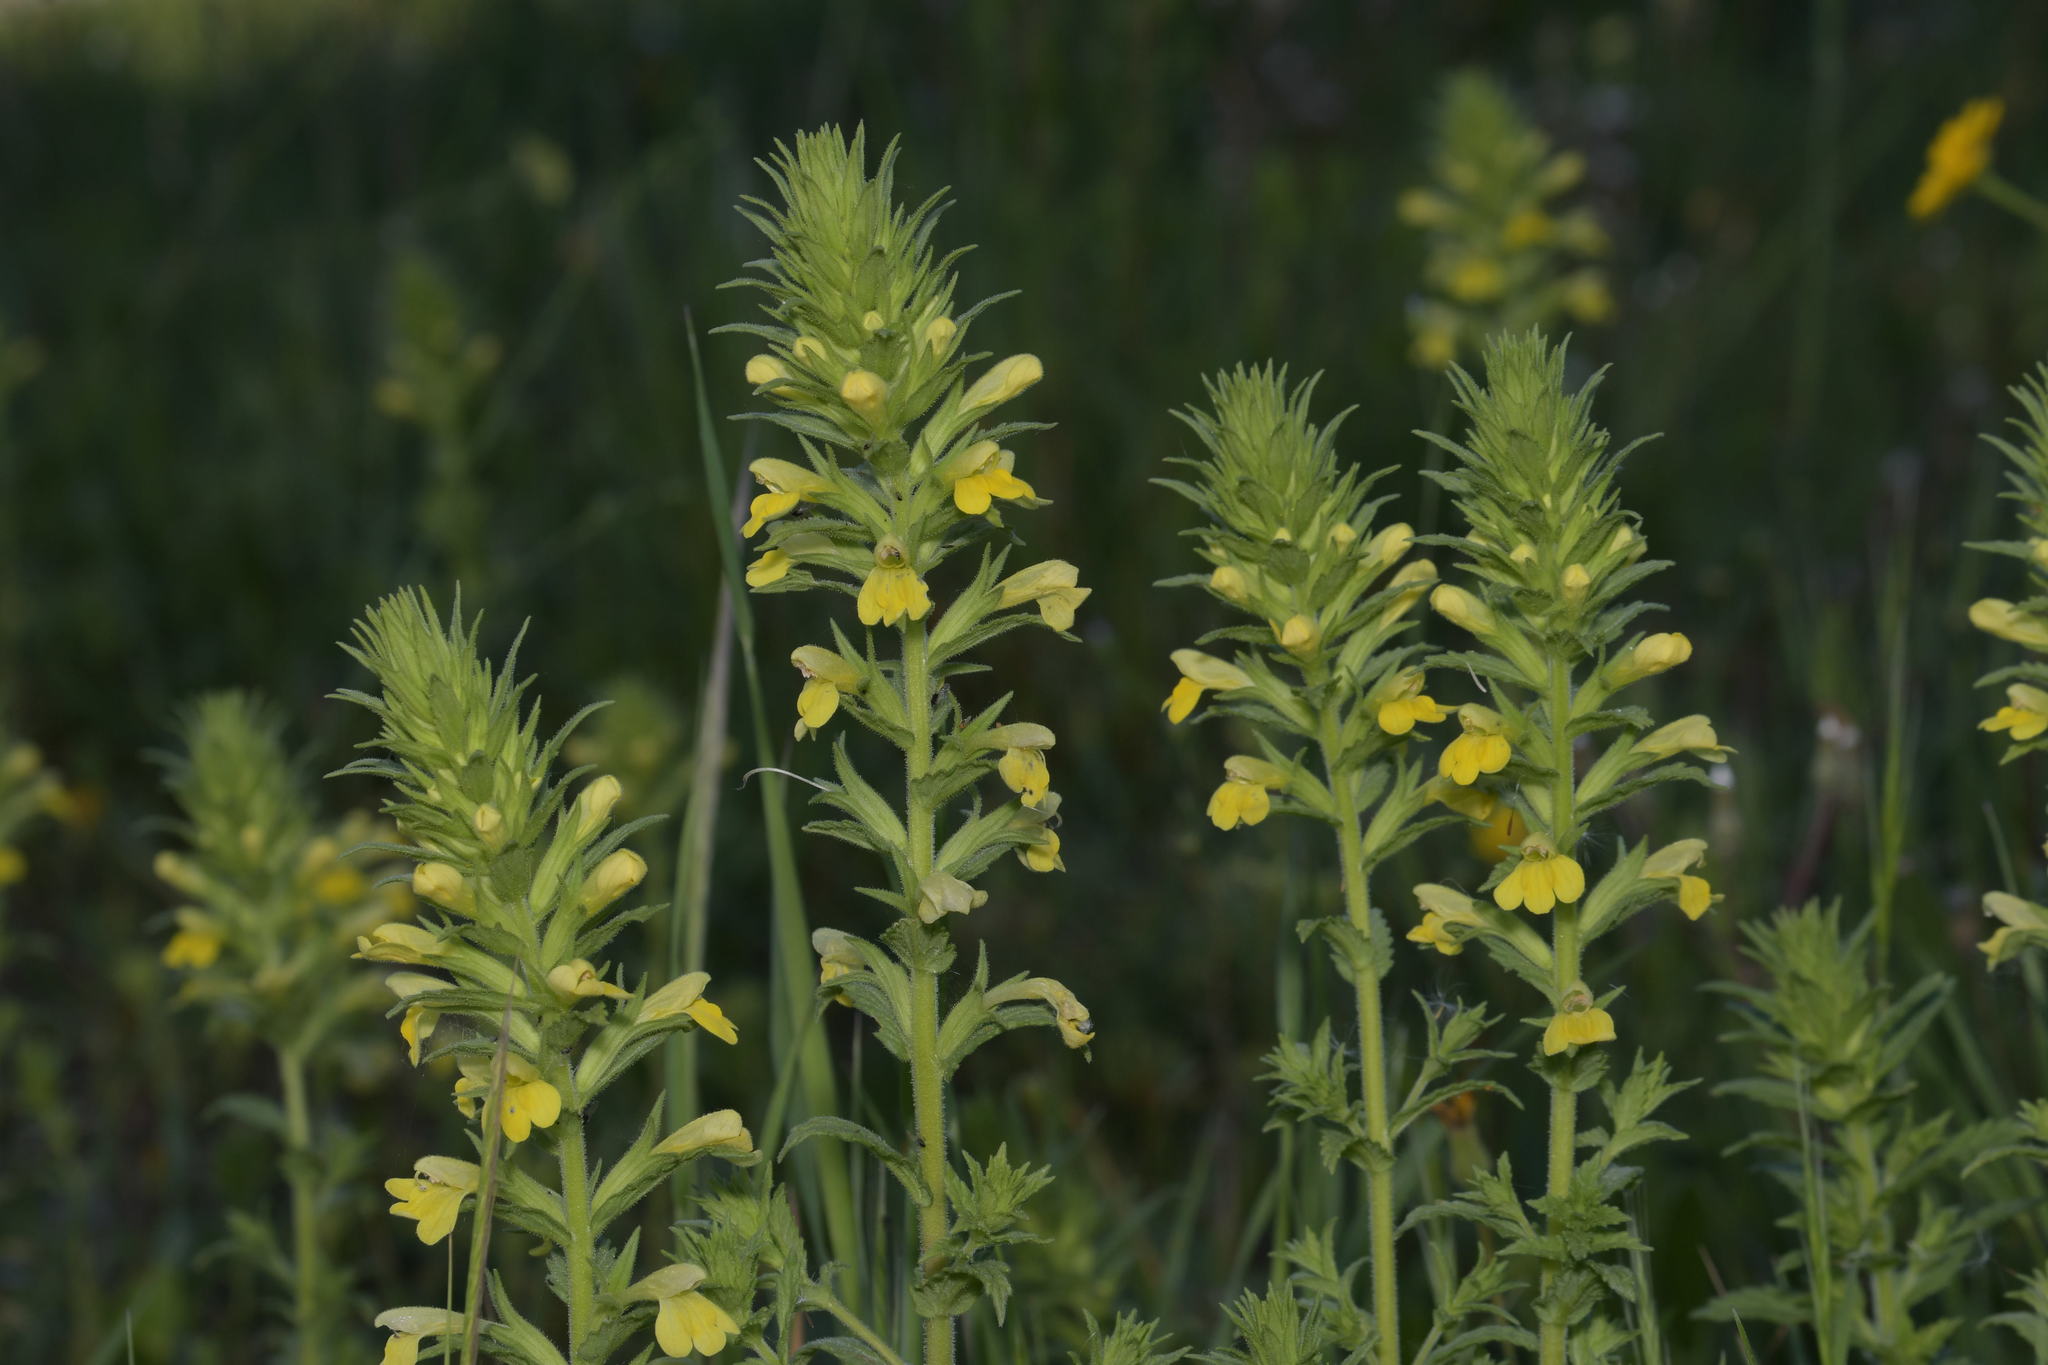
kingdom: Plantae
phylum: Tracheophyta
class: Magnoliopsida
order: Lamiales
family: Orobanchaceae
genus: Bellardia
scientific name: Bellardia viscosa
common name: Sticky parentucellia
